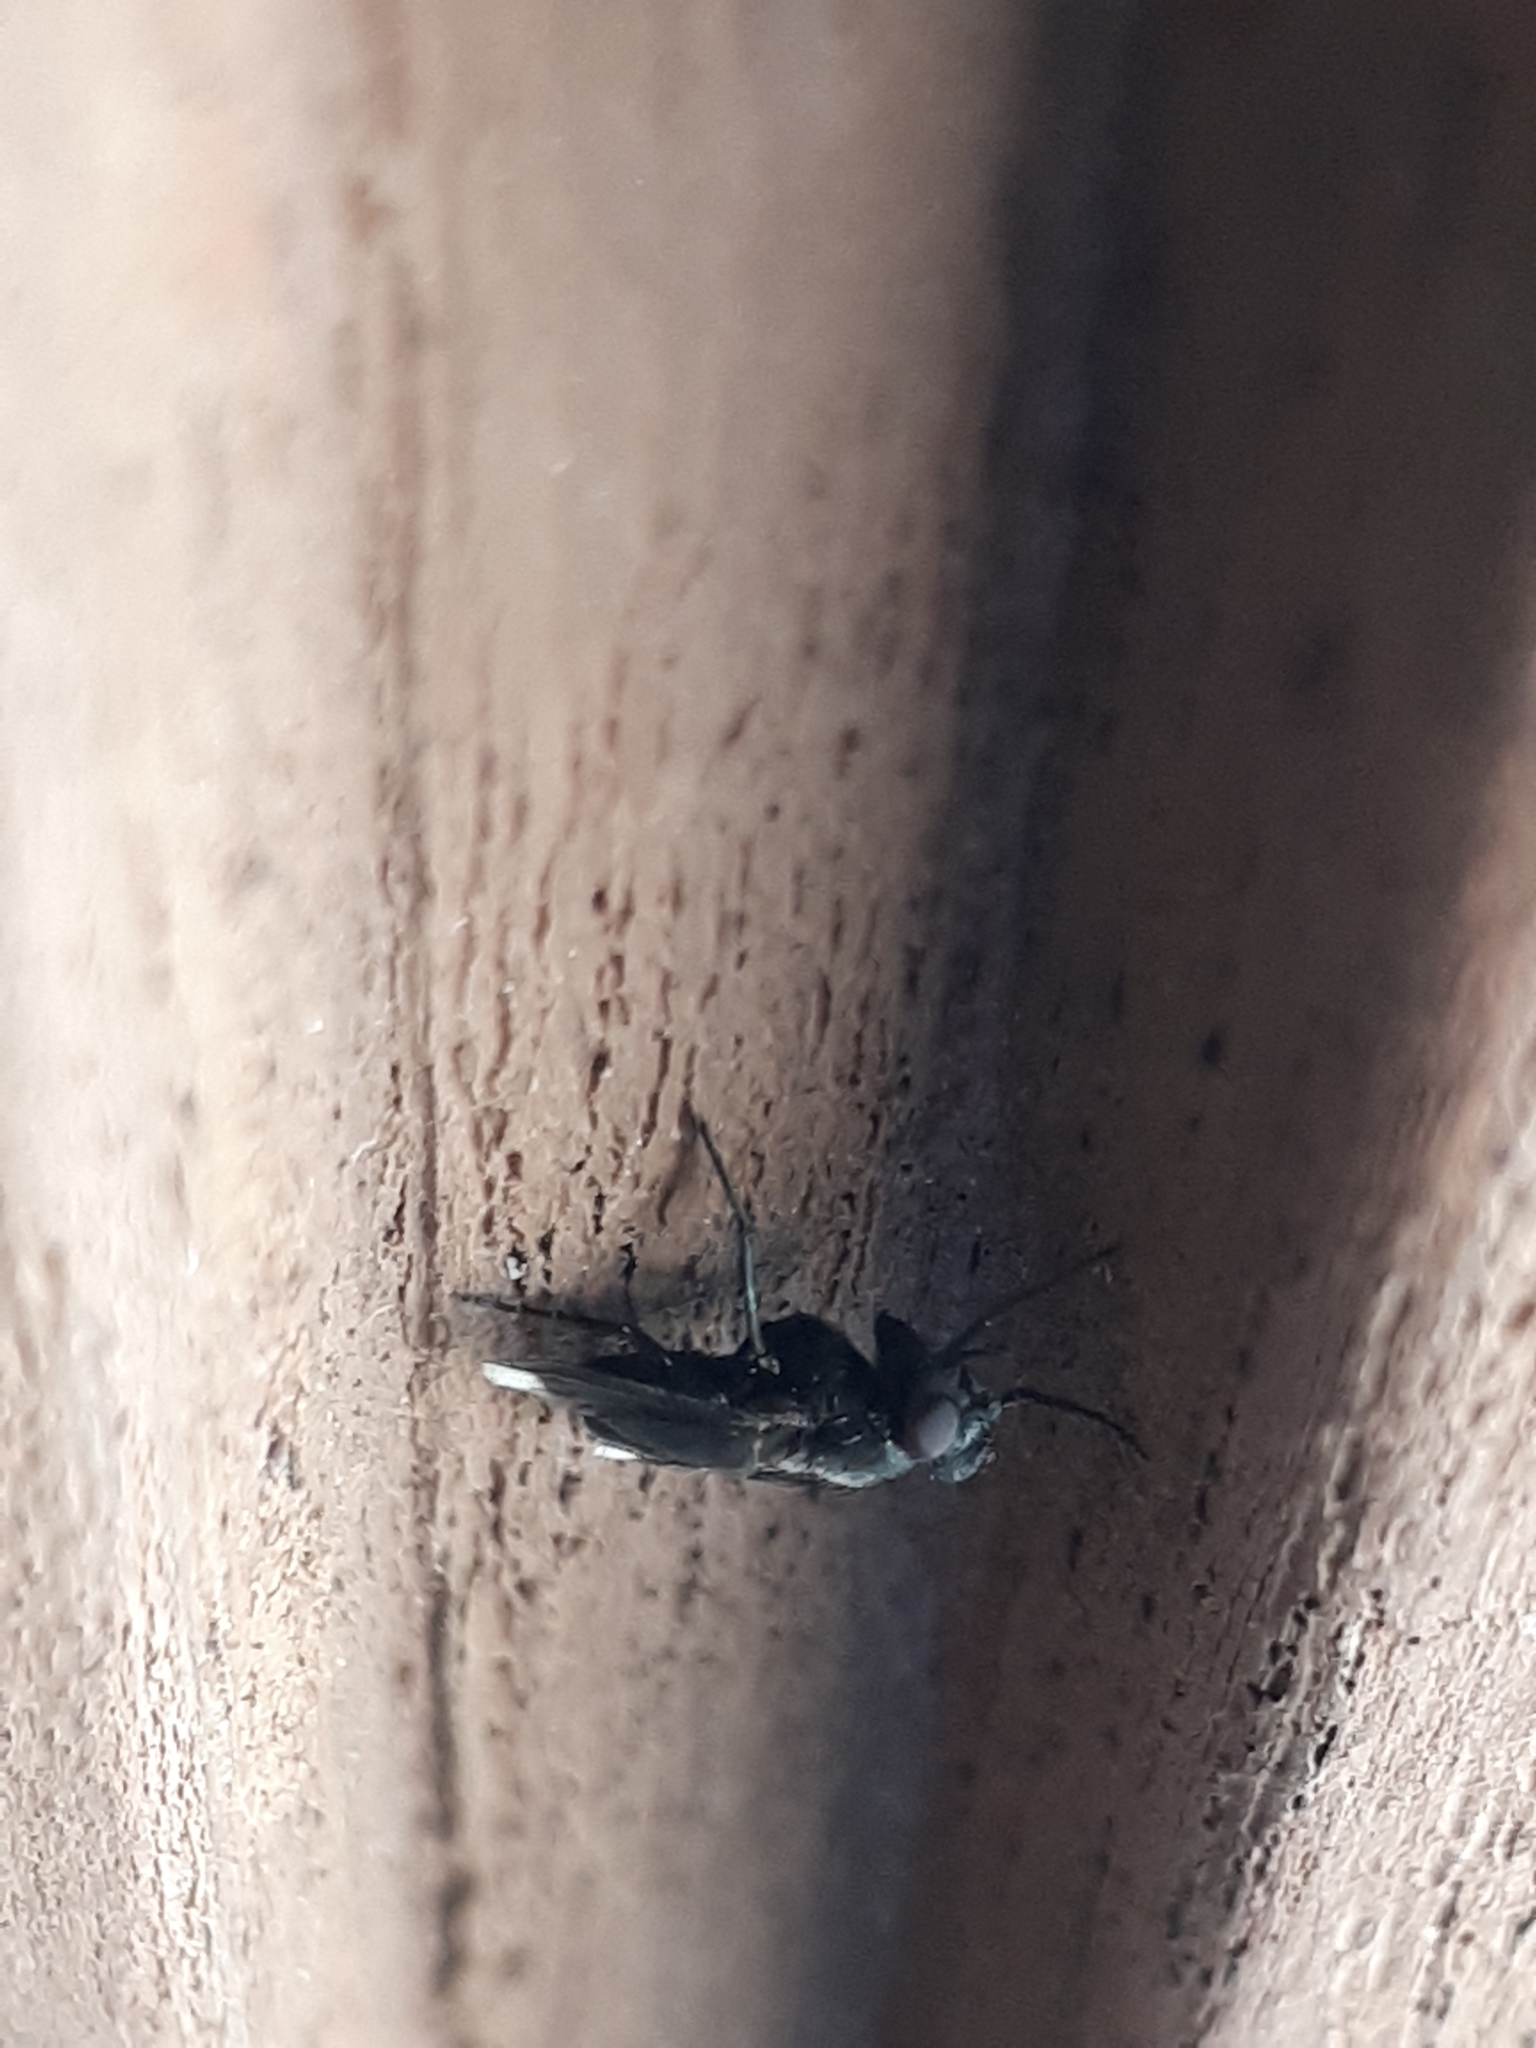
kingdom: Animalia
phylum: Arthropoda
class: Insecta
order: Diptera
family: Calliphoridae
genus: Melanophora
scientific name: Melanophora roralis
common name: Smoky-winged woodlouse-fly
